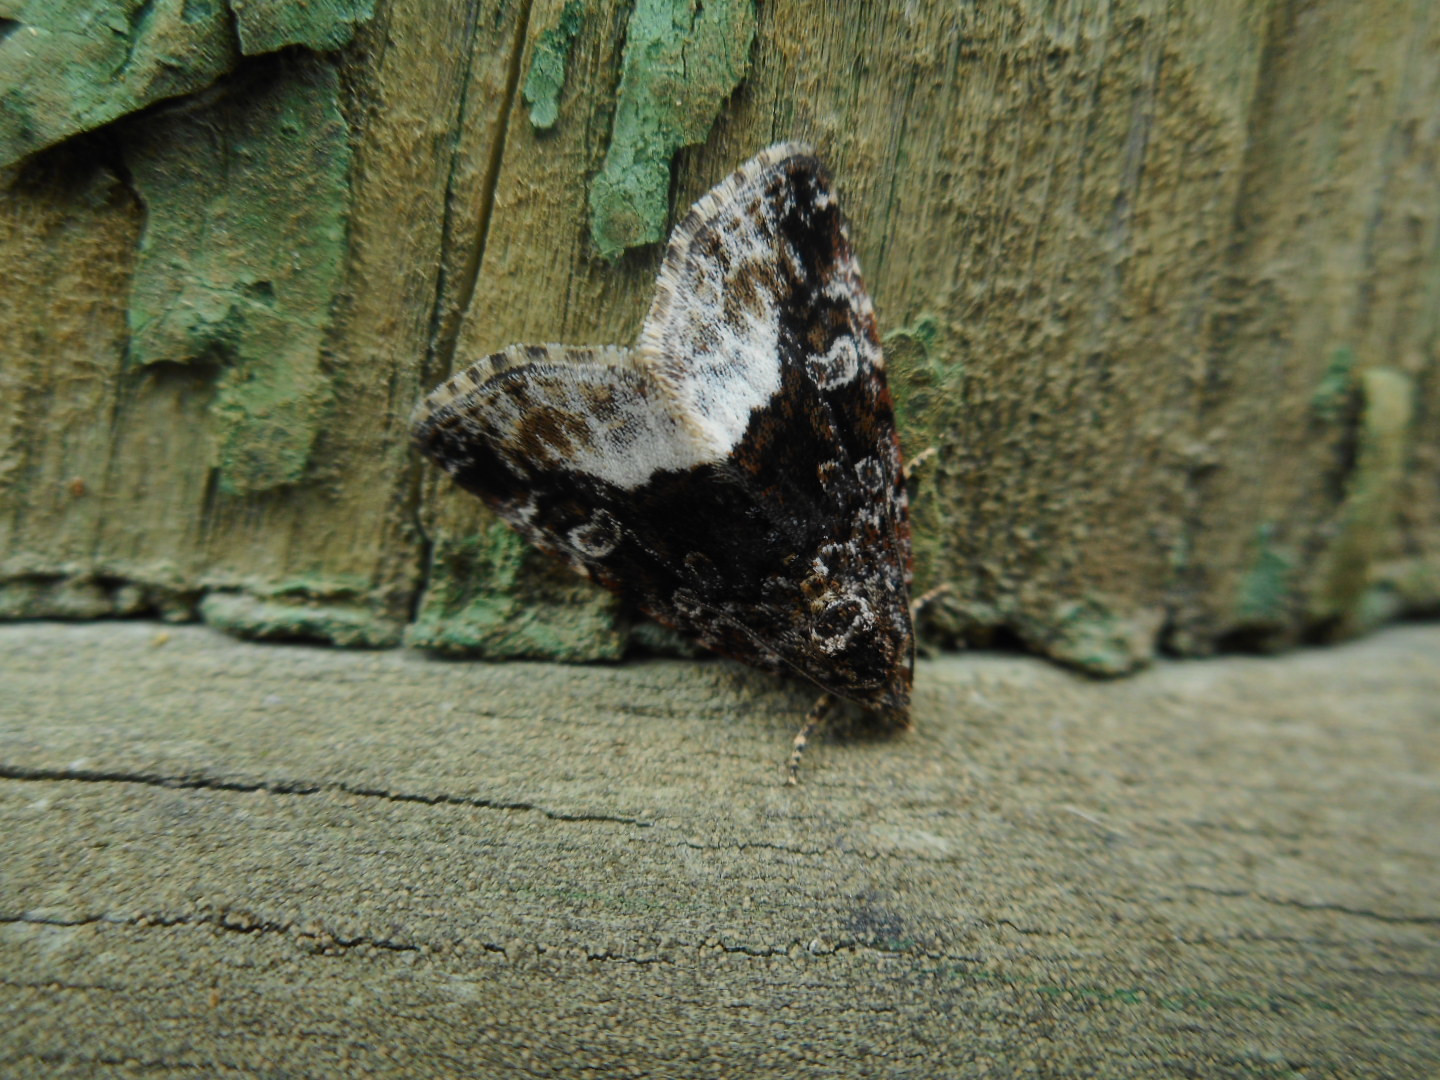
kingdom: Animalia
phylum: Arthropoda
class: Insecta
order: Lepidoptera
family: Noctuidae
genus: Deltote
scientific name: Deltote pygarga
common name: Marbled white spot
